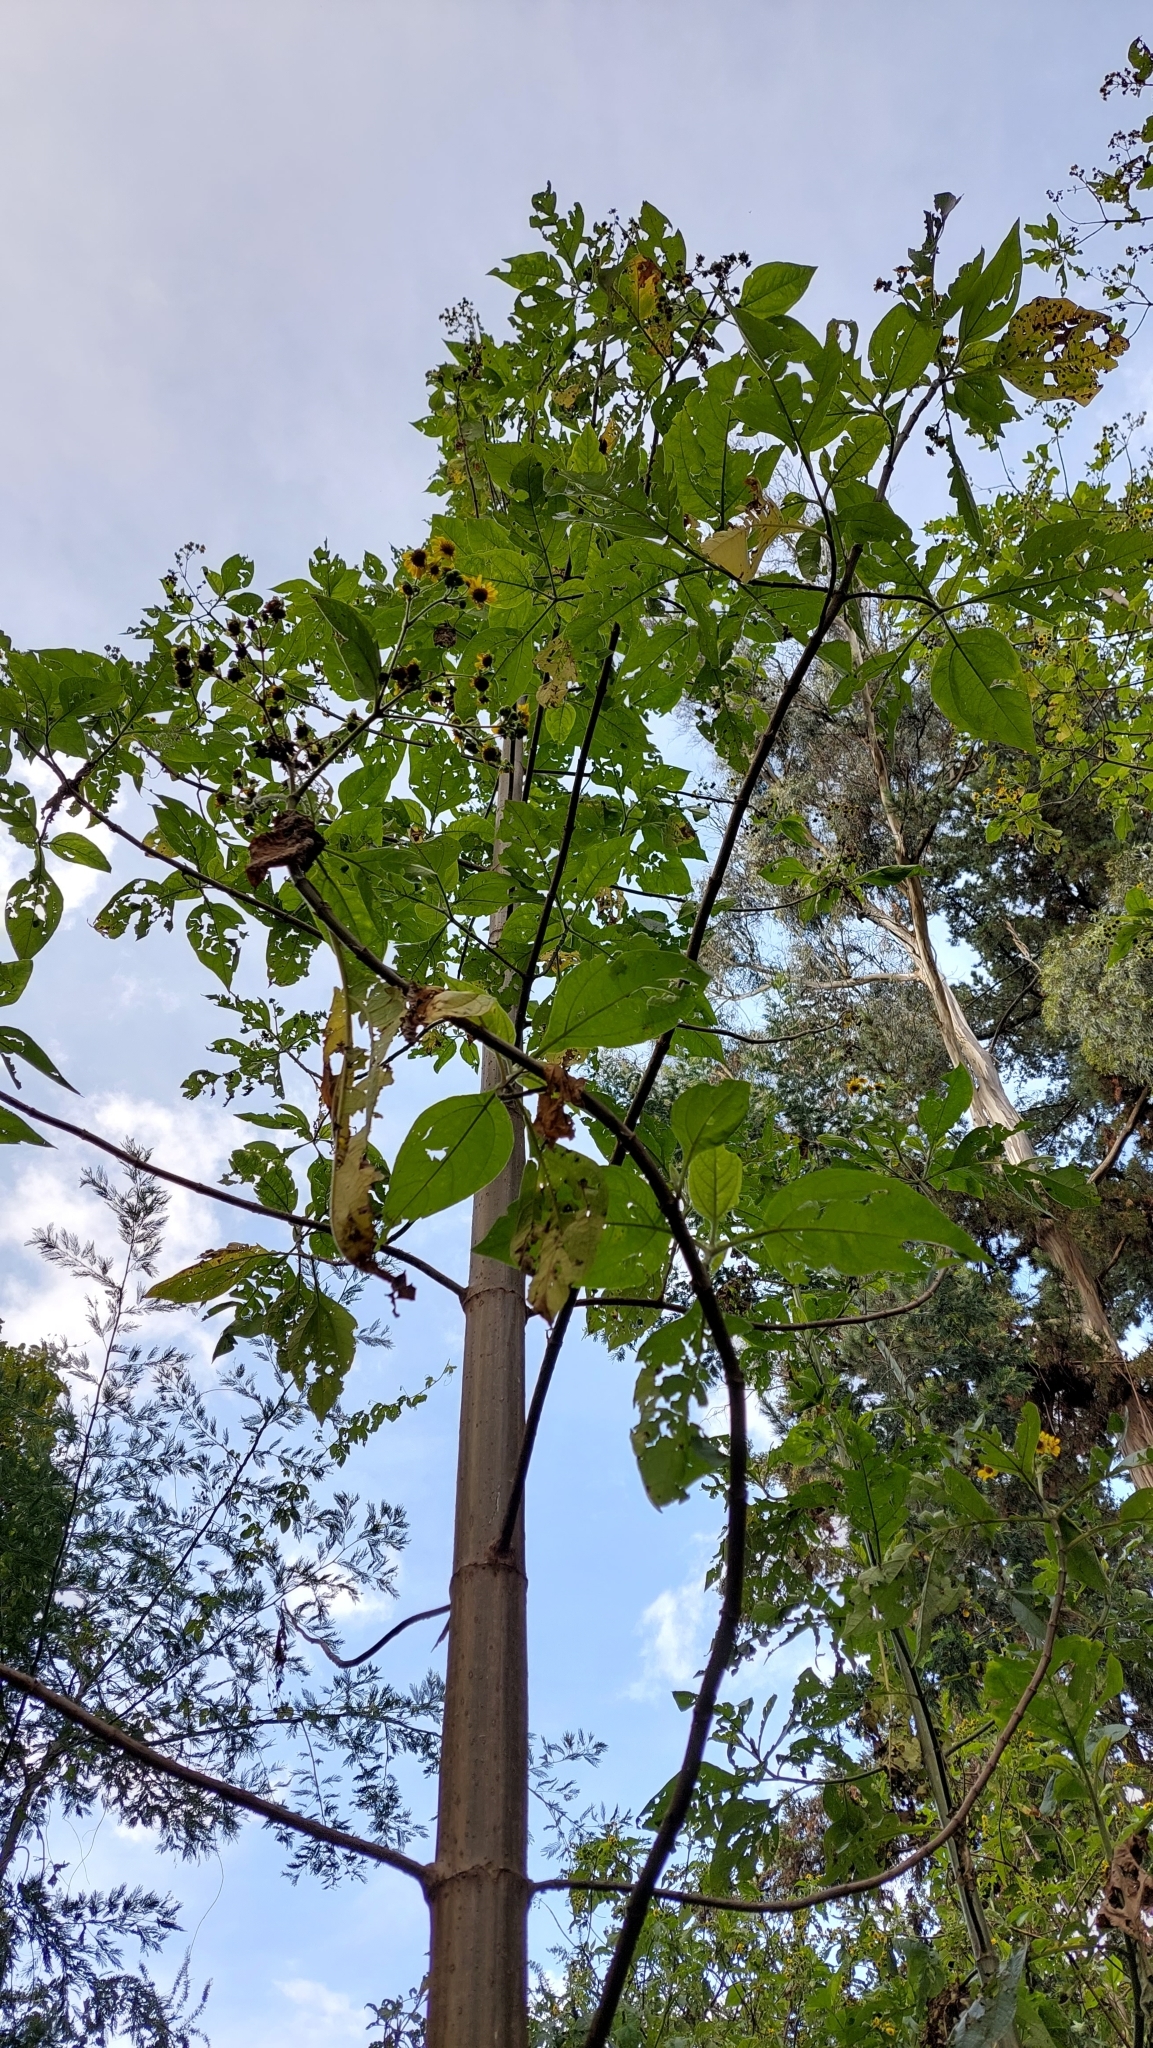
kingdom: Plantae
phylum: Tracheophyta
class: Magnoliopsida
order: Asterales
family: Asteraceae
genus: Smallanthus
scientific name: Smallanthus pyramidalis
